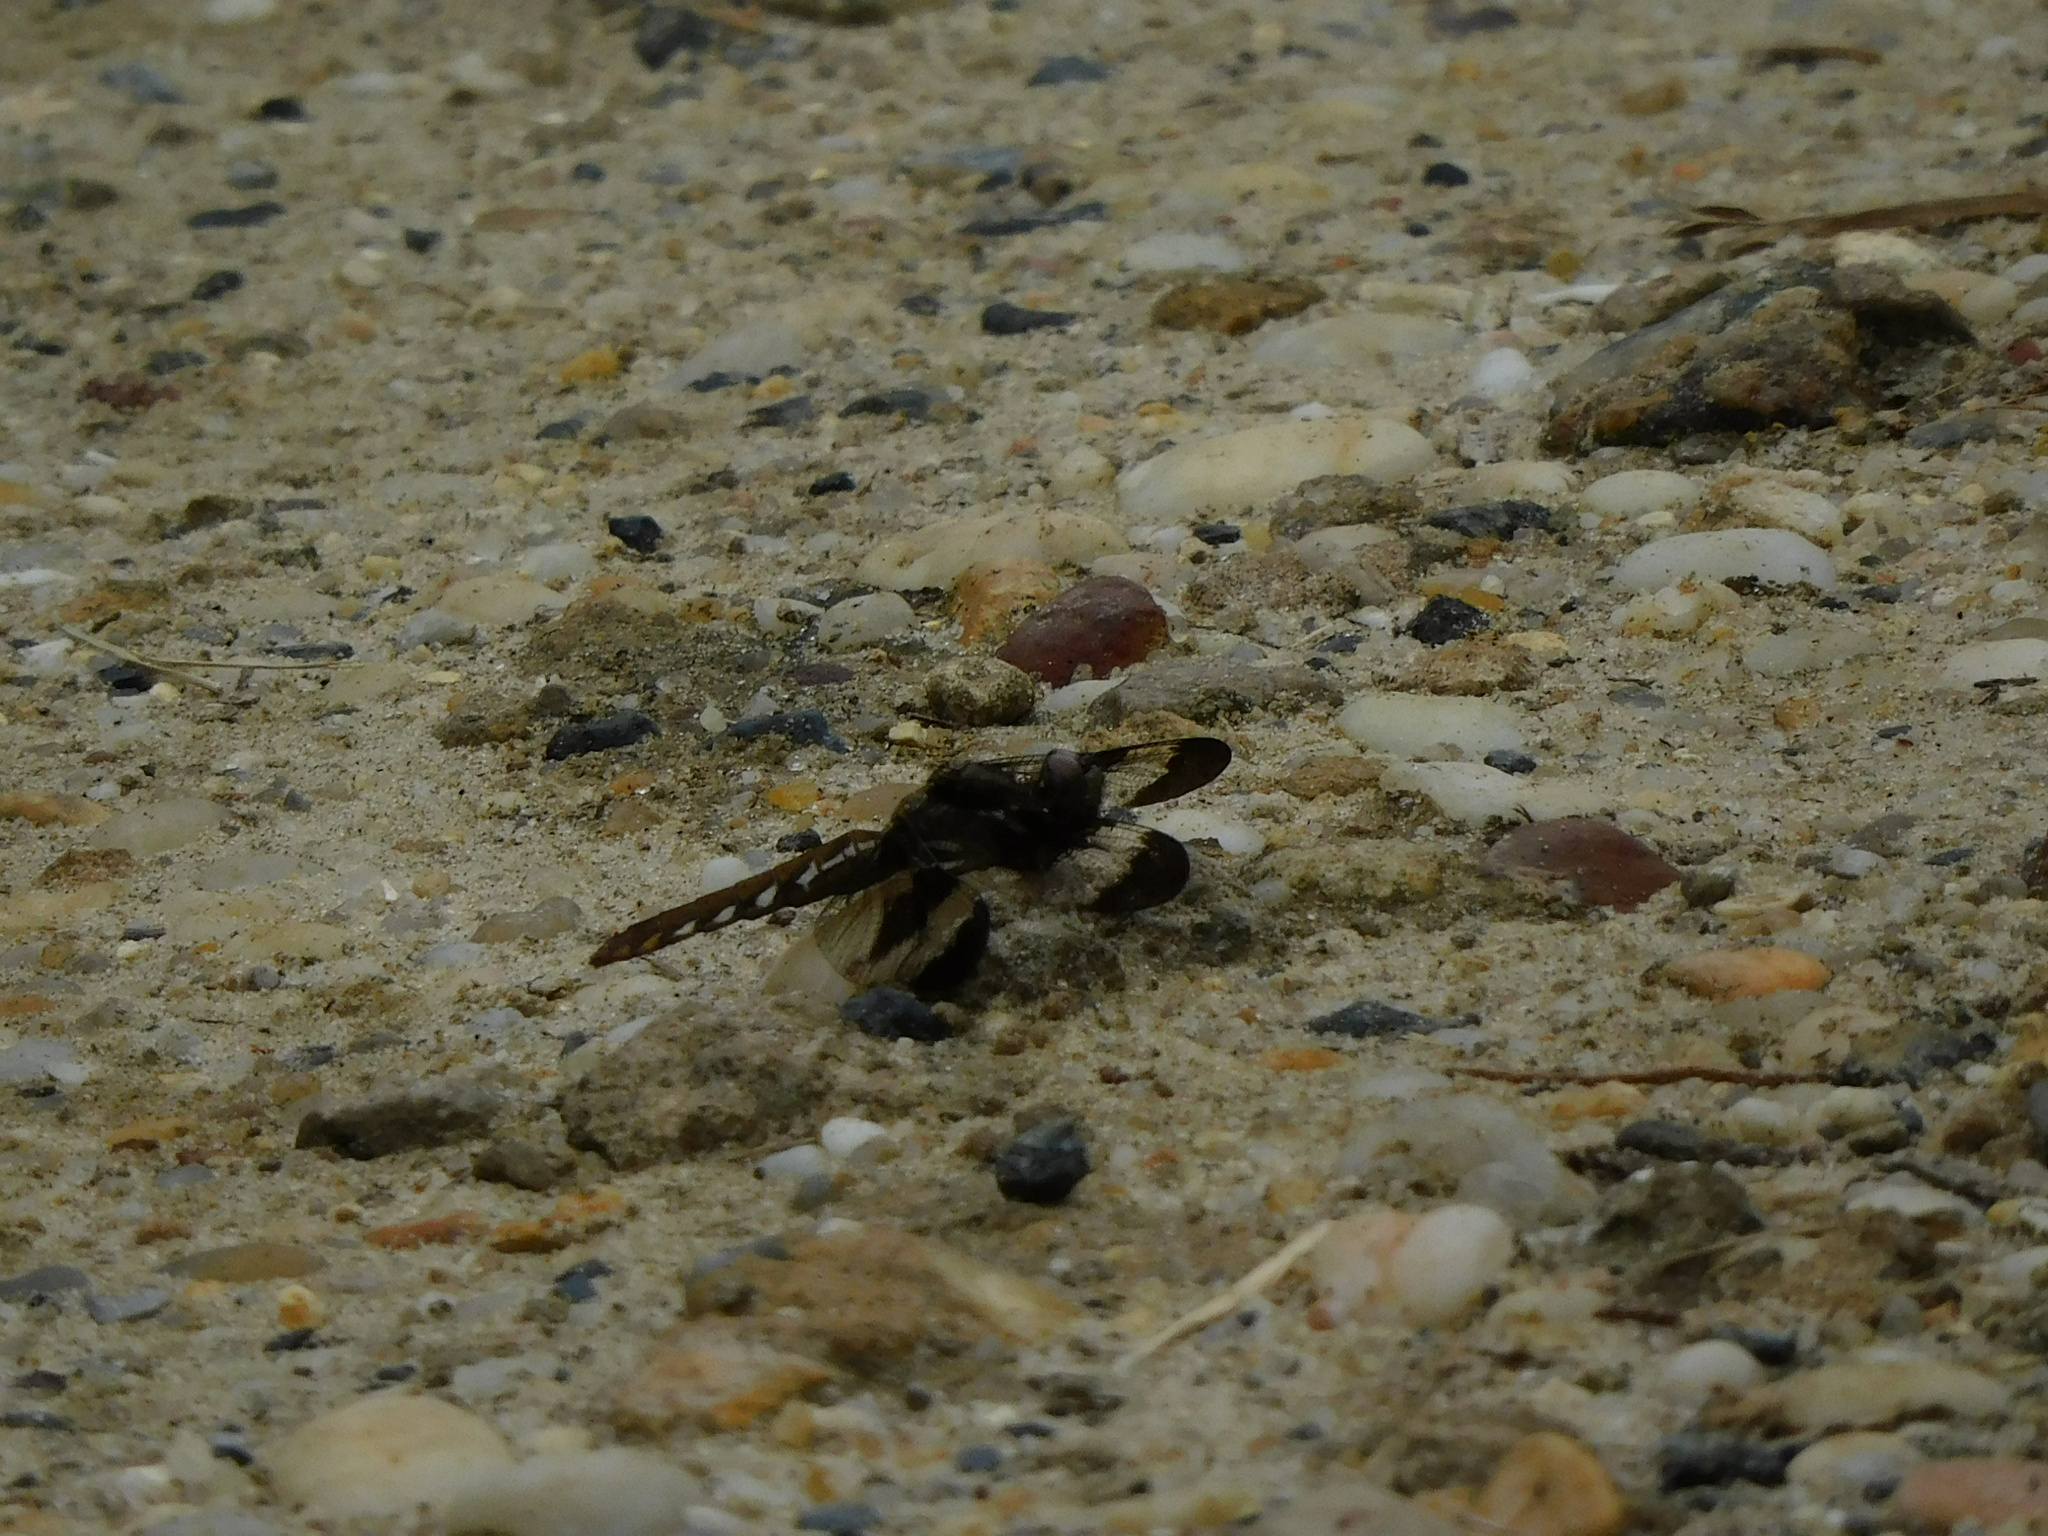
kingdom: Animalia
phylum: Arthropoda
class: Insecta
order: Odonata
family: Libellulidae
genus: Plathemis
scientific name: Plathemis lydia
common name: Common whitetail
